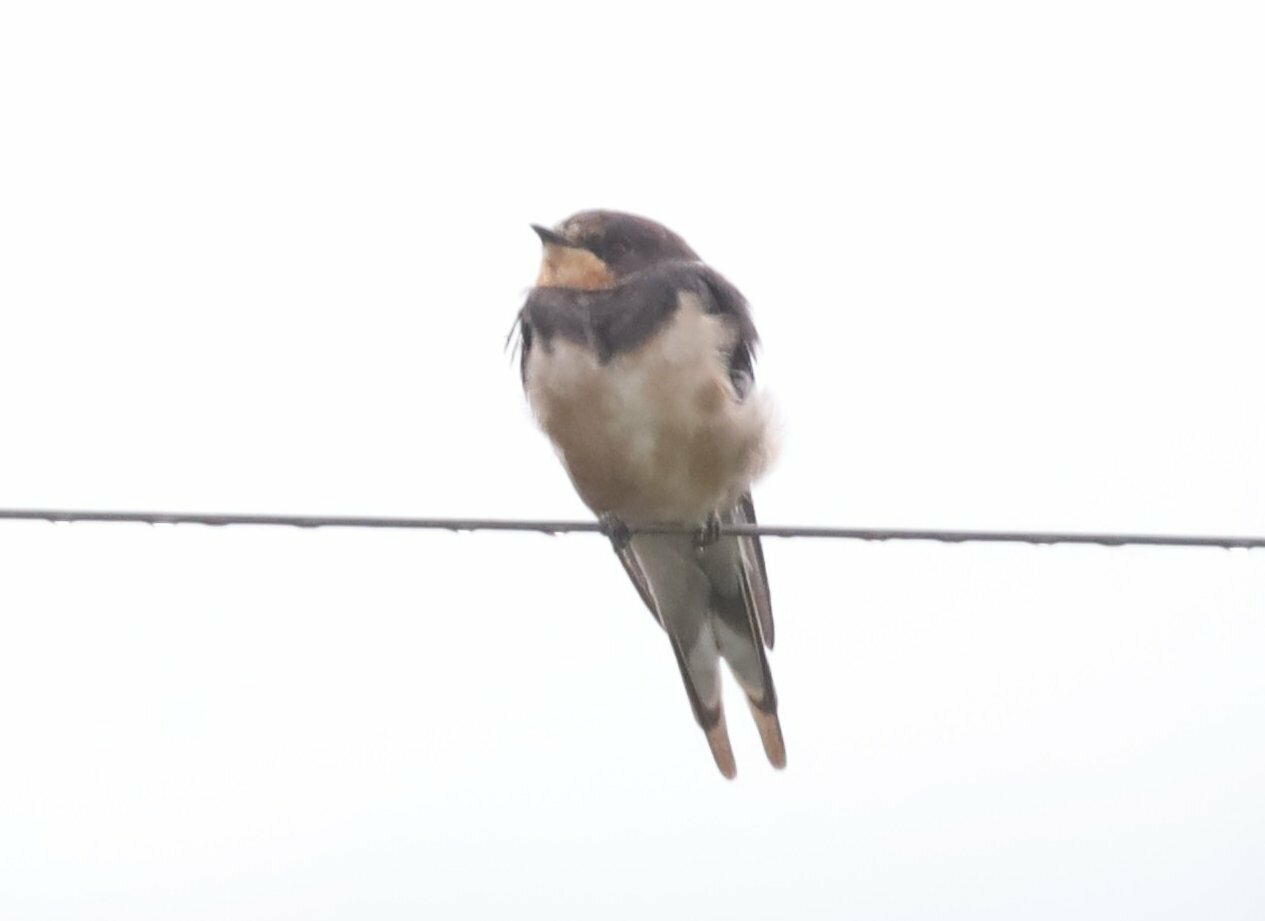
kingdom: Animalia
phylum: Chordata
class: Aves
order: Passeriformes
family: Hirundinidae
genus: Hirundo
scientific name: Hirundo rustica
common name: Barn swallow
